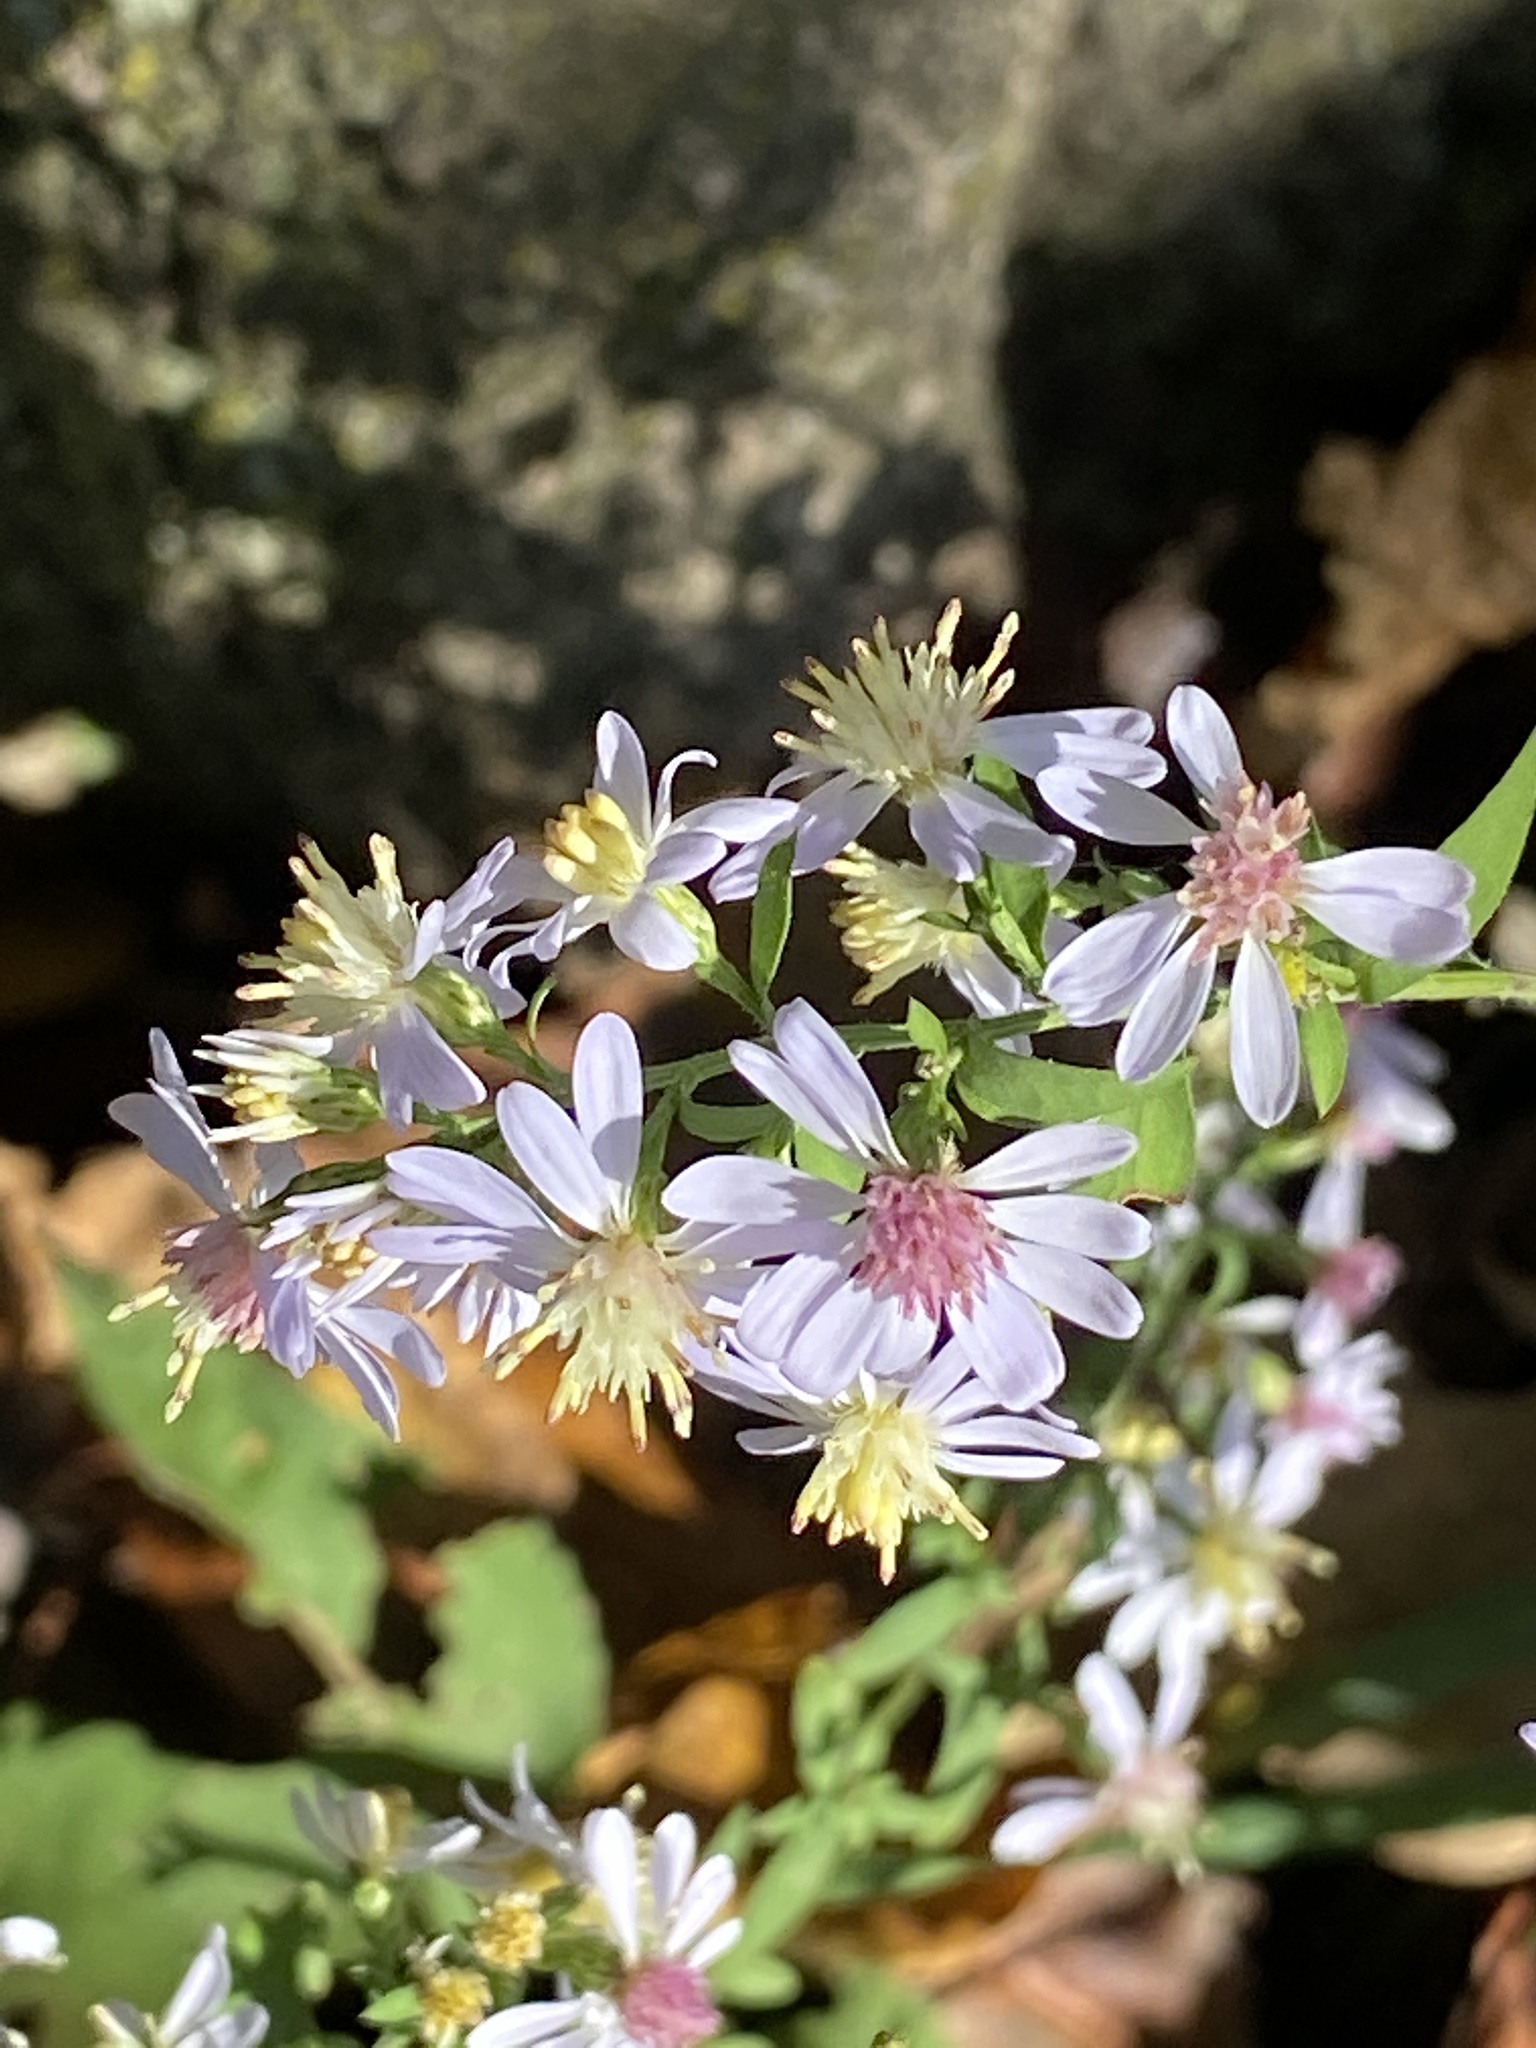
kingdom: Plantae
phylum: Tracheophyta
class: Magnoliopsida
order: Asterales
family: Asteraceae
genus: Symphyotrichum
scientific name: Symphyotrichum cordifolium
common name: Beeweed
